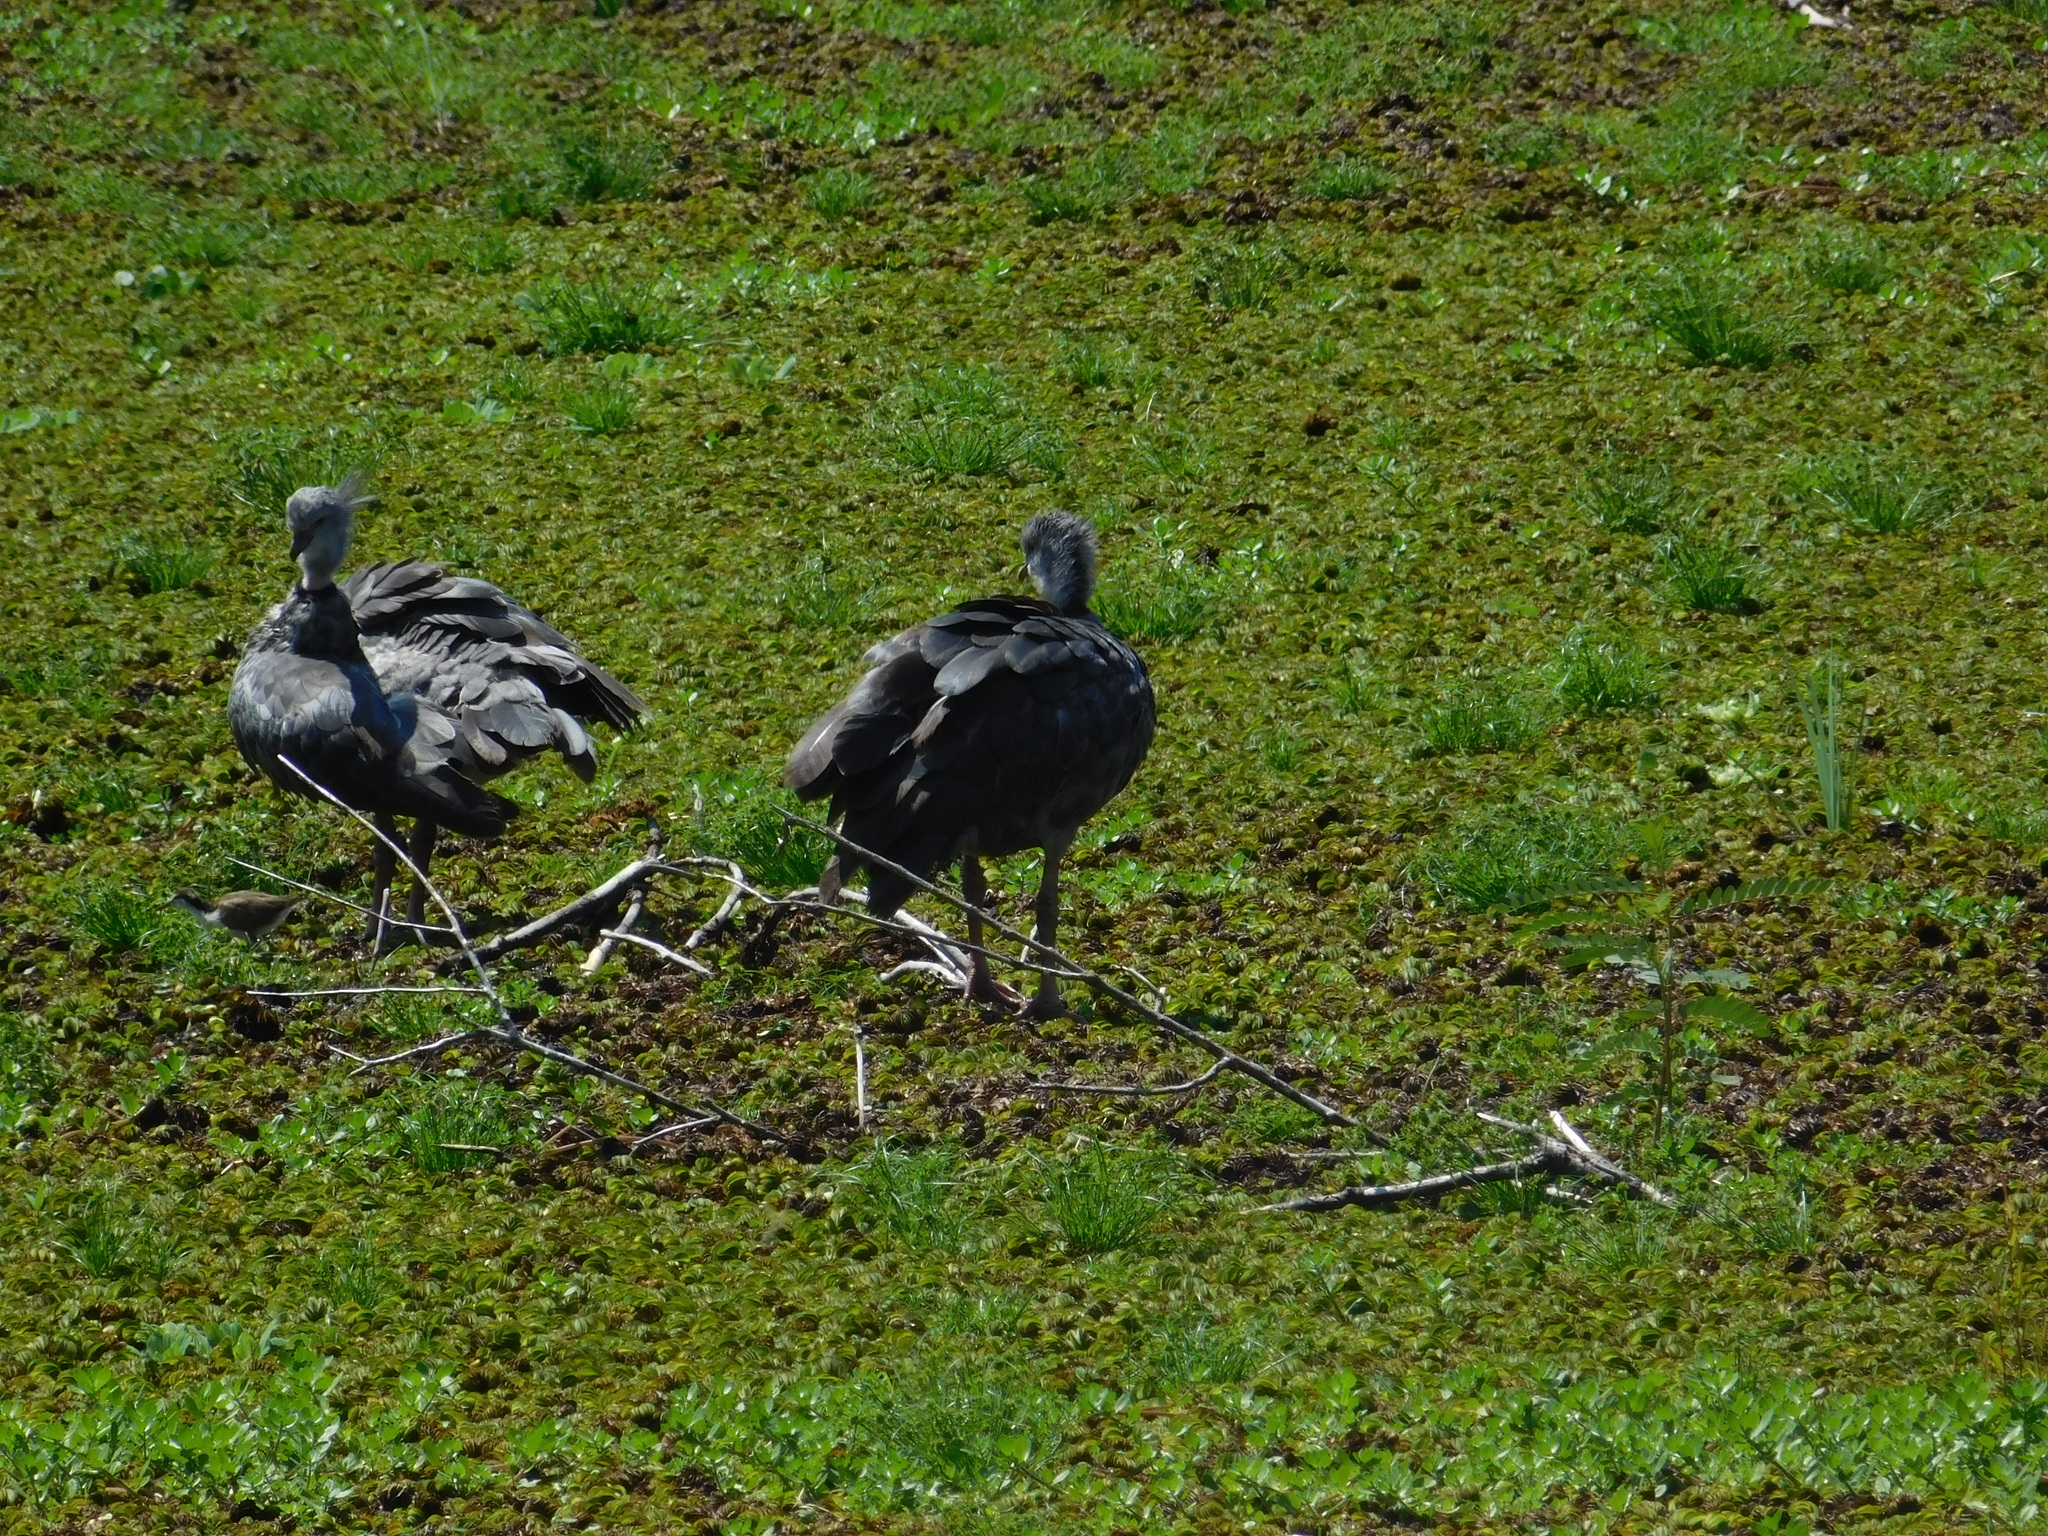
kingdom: Animalia
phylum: Chordata
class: Aves
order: Anseriformes
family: Anhimidae
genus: Chauna
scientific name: Chauna torquata
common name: Southern screamer
